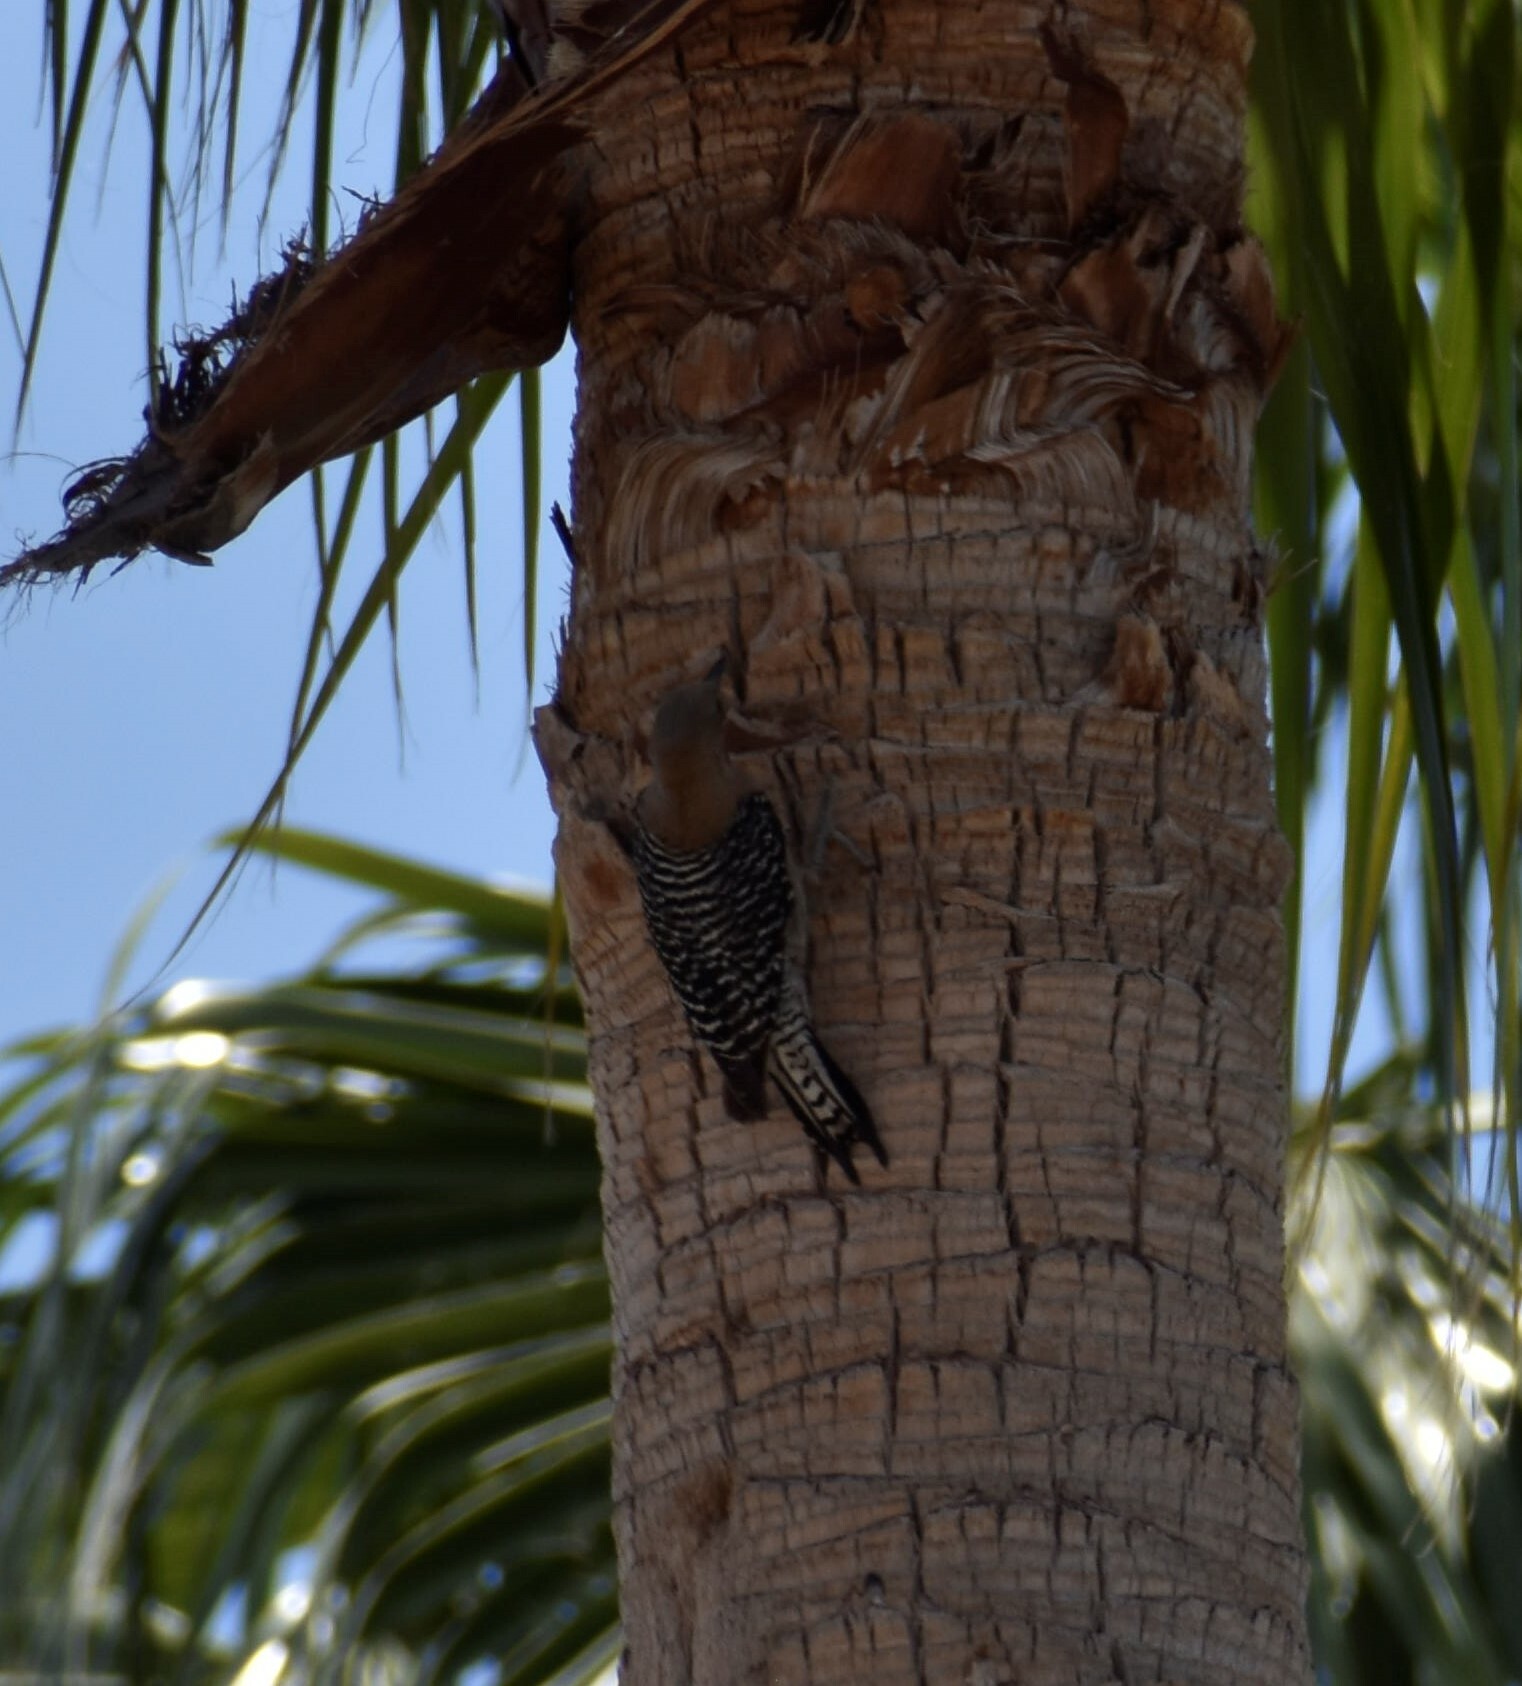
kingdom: Animalia
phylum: Chordata
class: Aves
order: Piciformes
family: Picidae
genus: Melanerpes
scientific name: Melanerpes uropygialis
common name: Gila woodpecker
